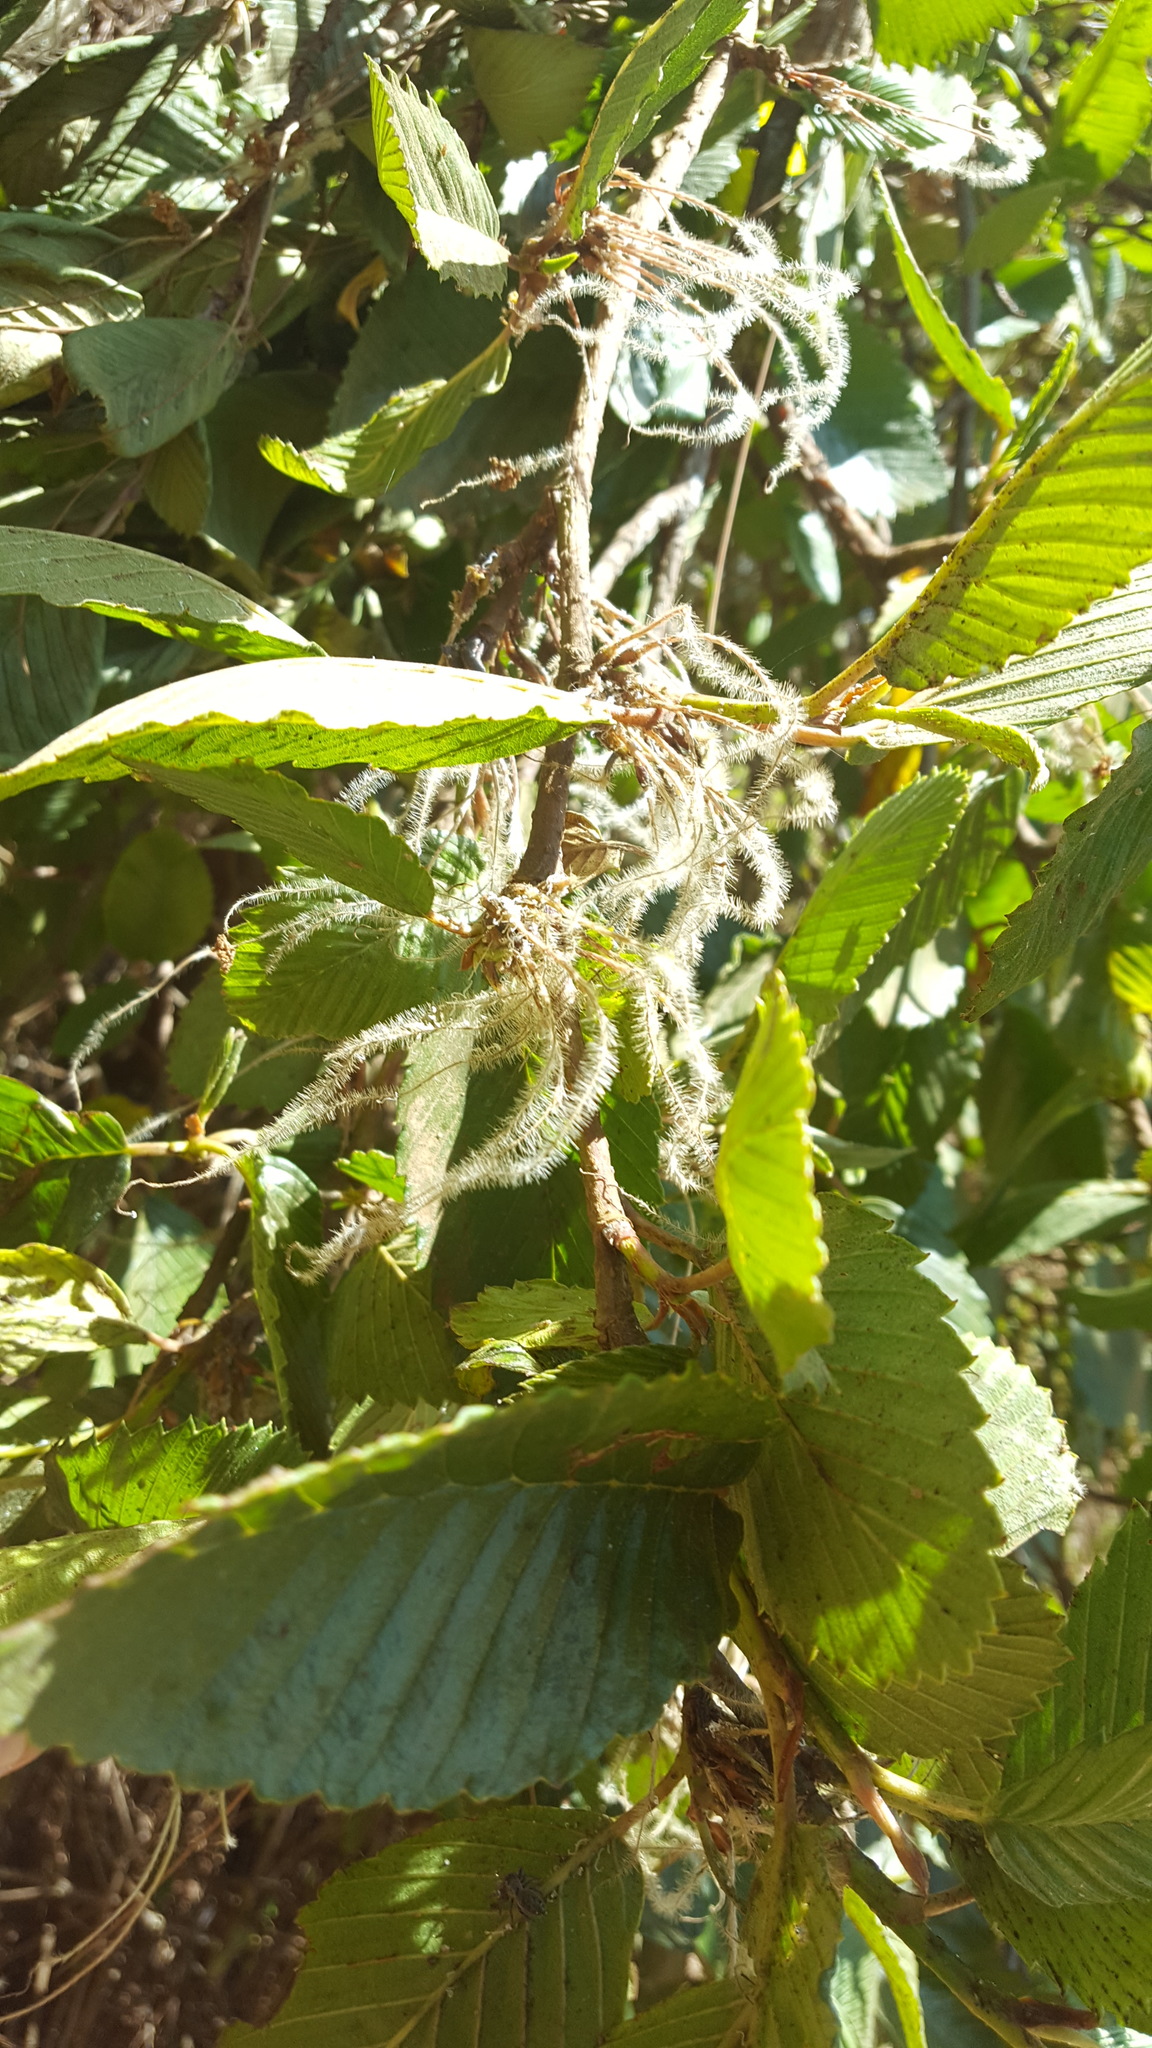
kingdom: Plantae
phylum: Tracheophyta
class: Magnoliopsida
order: Rosales
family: Rosaceae
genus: Cercocarpus
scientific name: Cercocarpus macrophyllus
